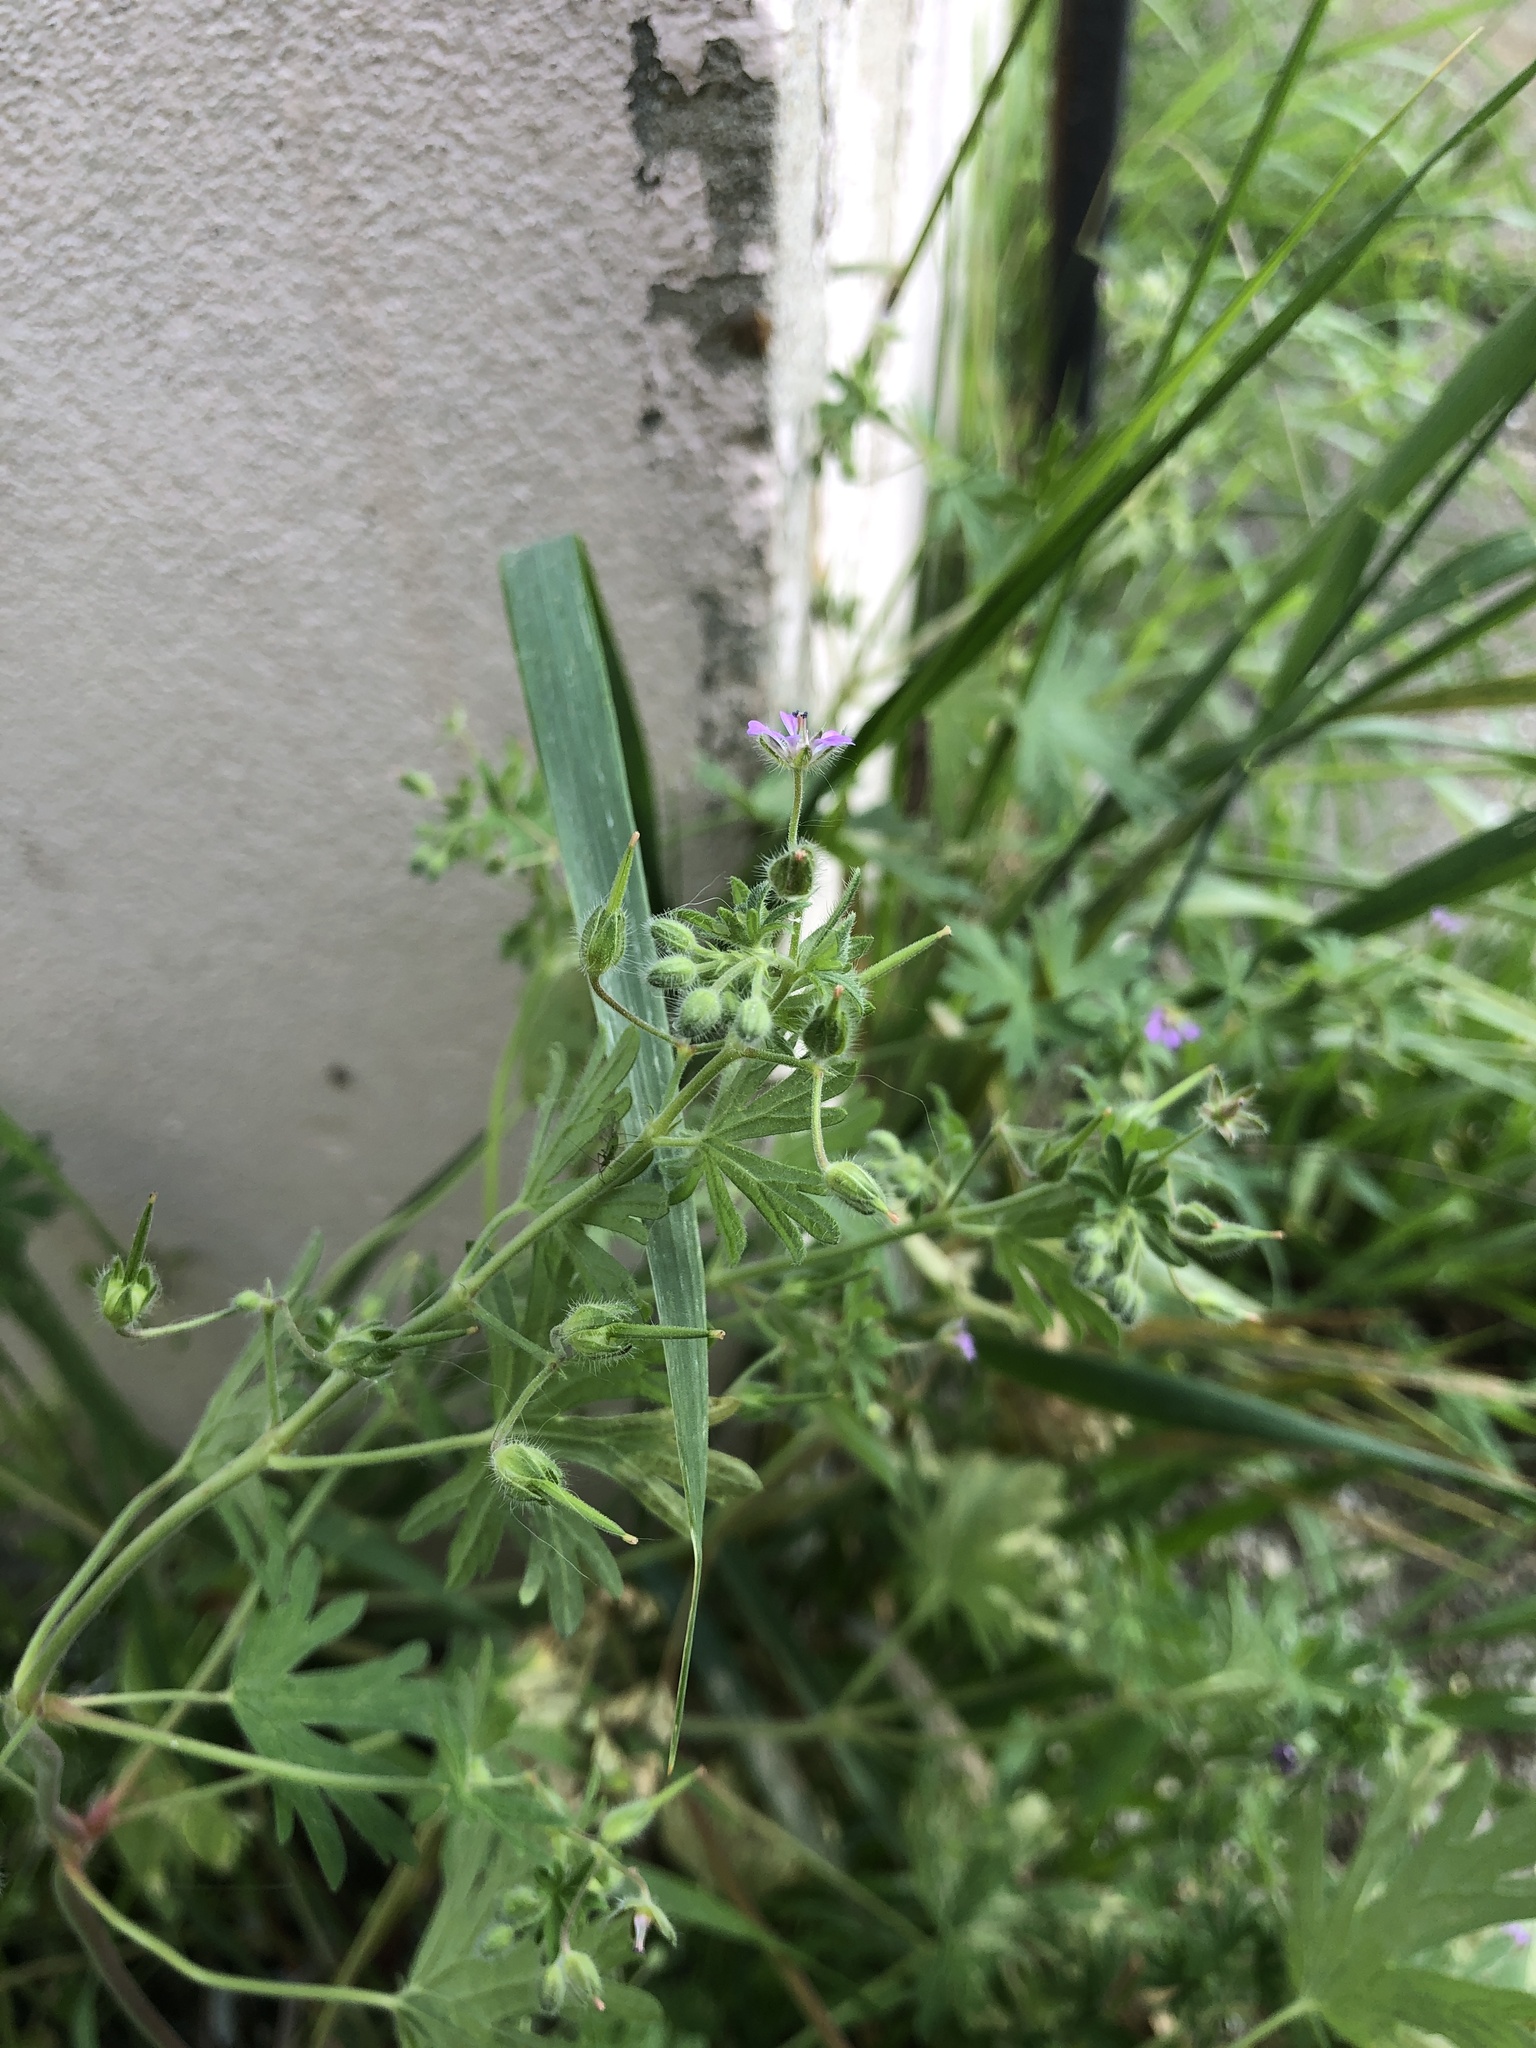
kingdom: Plantae
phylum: Tracheophyta
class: Magnoliopsida
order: Geraniales
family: Geraniaceae
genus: Geranium
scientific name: Geranium pusillum
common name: Small geranium
